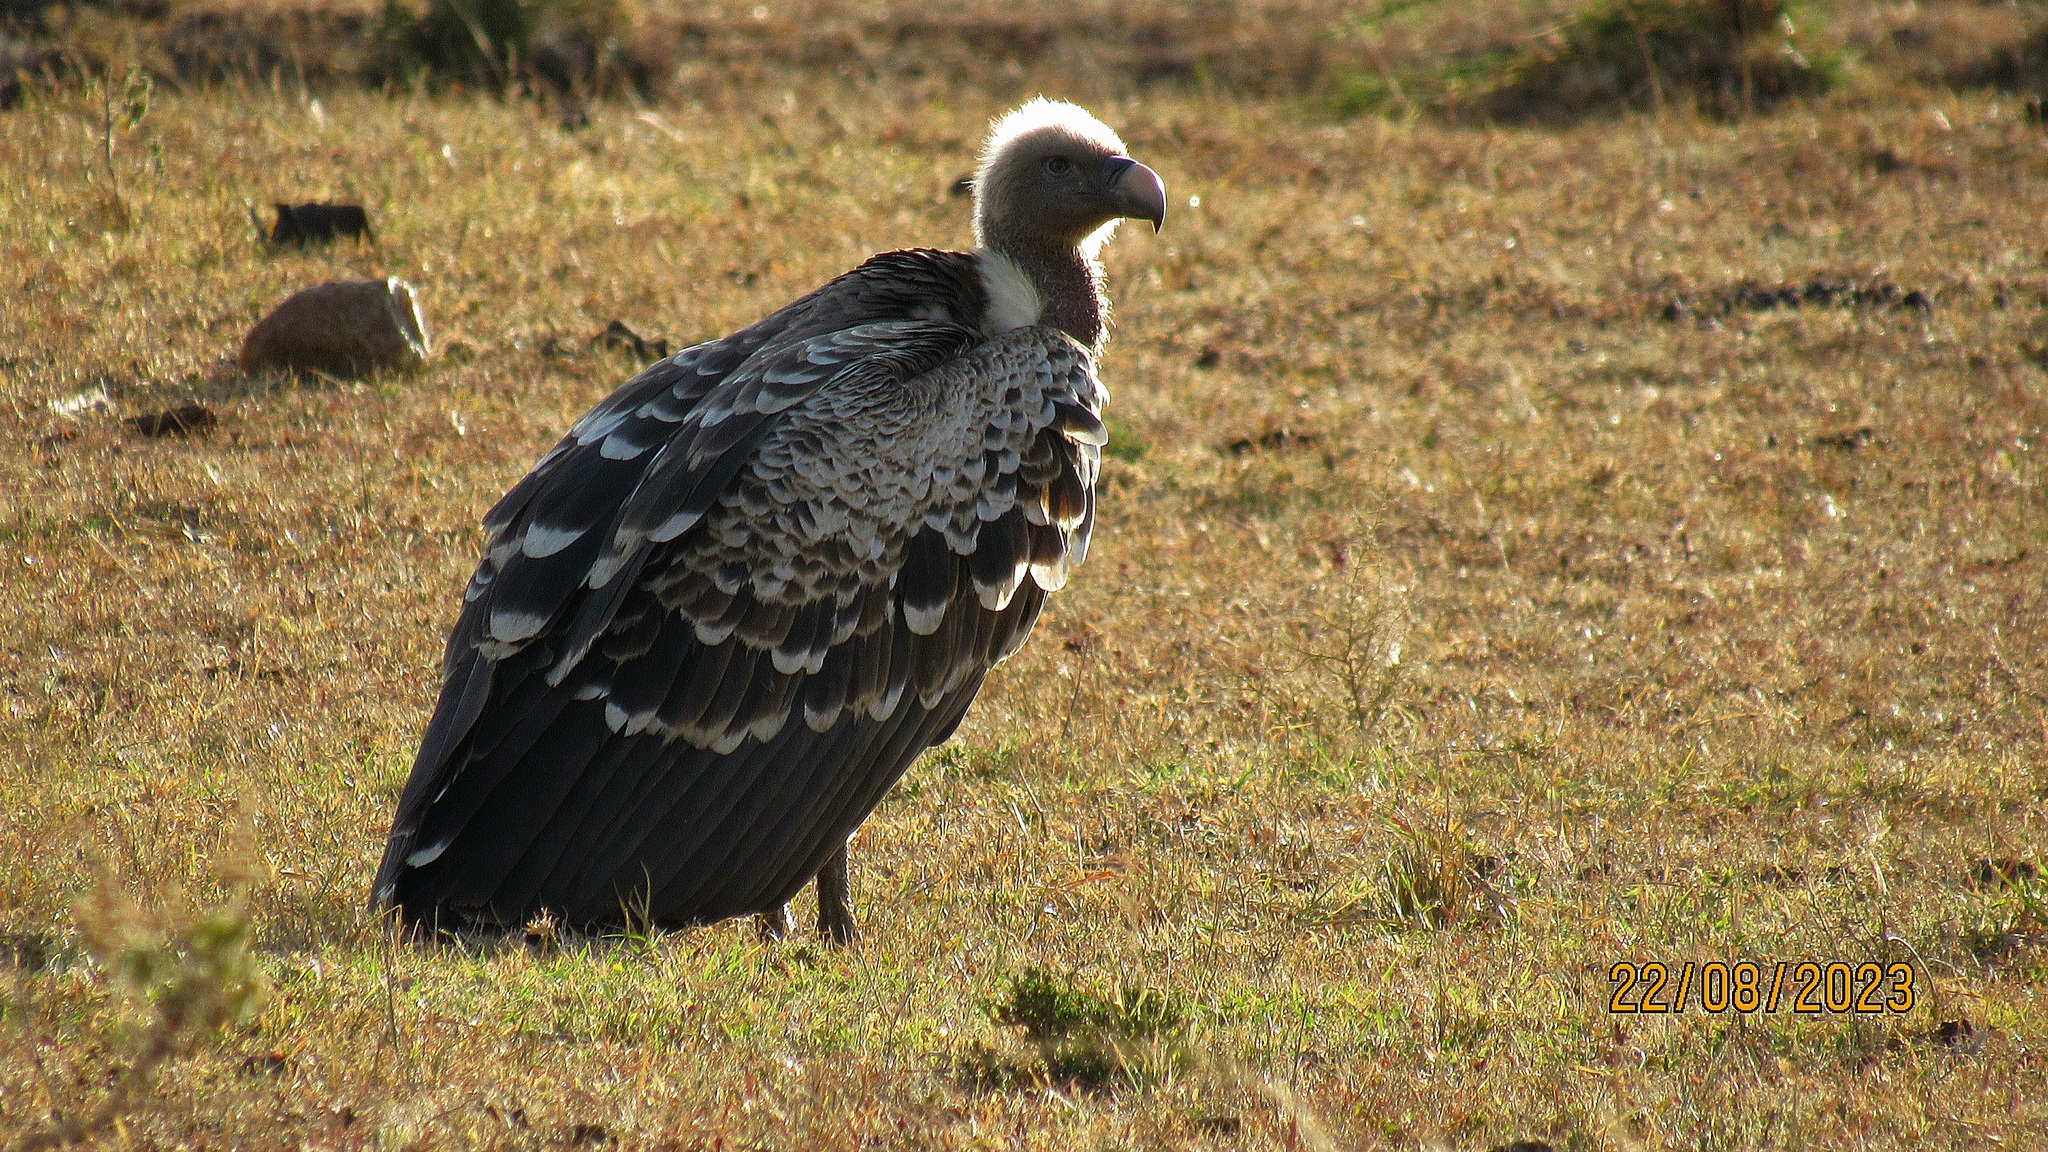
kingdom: Animalia
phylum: Chordata
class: Aves
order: Accipitriformes
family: Accipitridae
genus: Gyps
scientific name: Gyps rueppellii
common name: Rüppell's vulture
